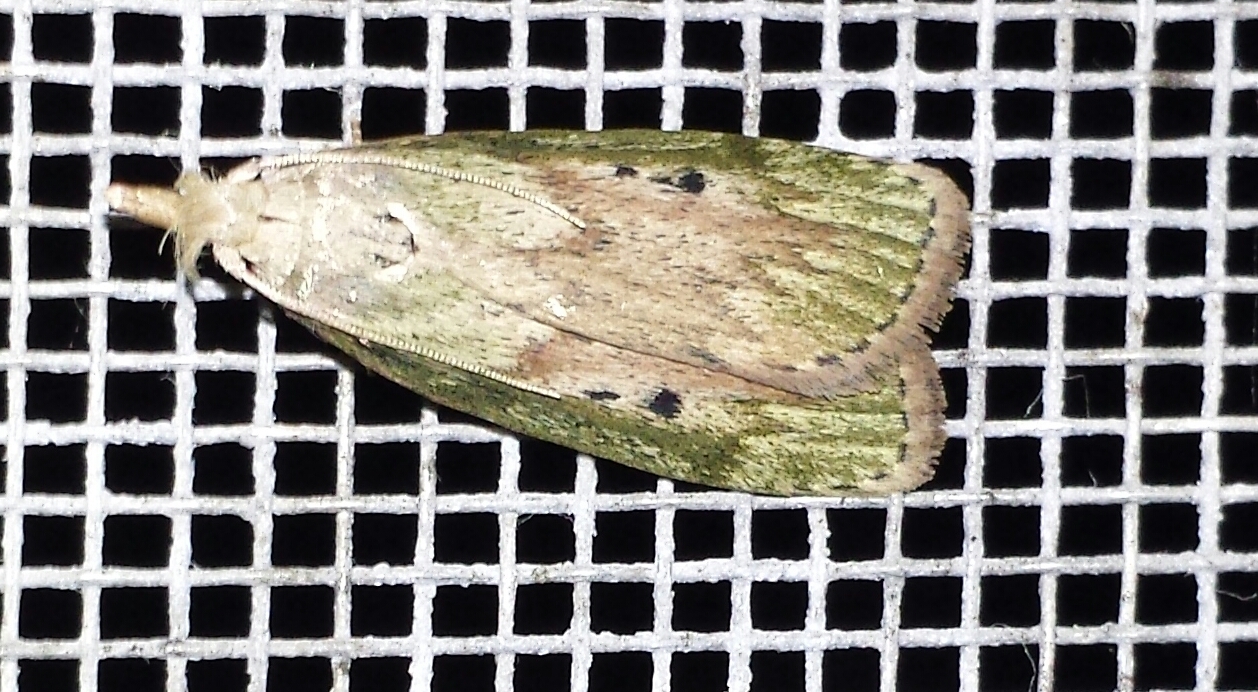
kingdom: Animalia
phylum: Arthropoda
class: Insecta
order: Lepidoptera
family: Pyralidae
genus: Aphomia
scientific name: Aphomia sociella
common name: Bee moth
